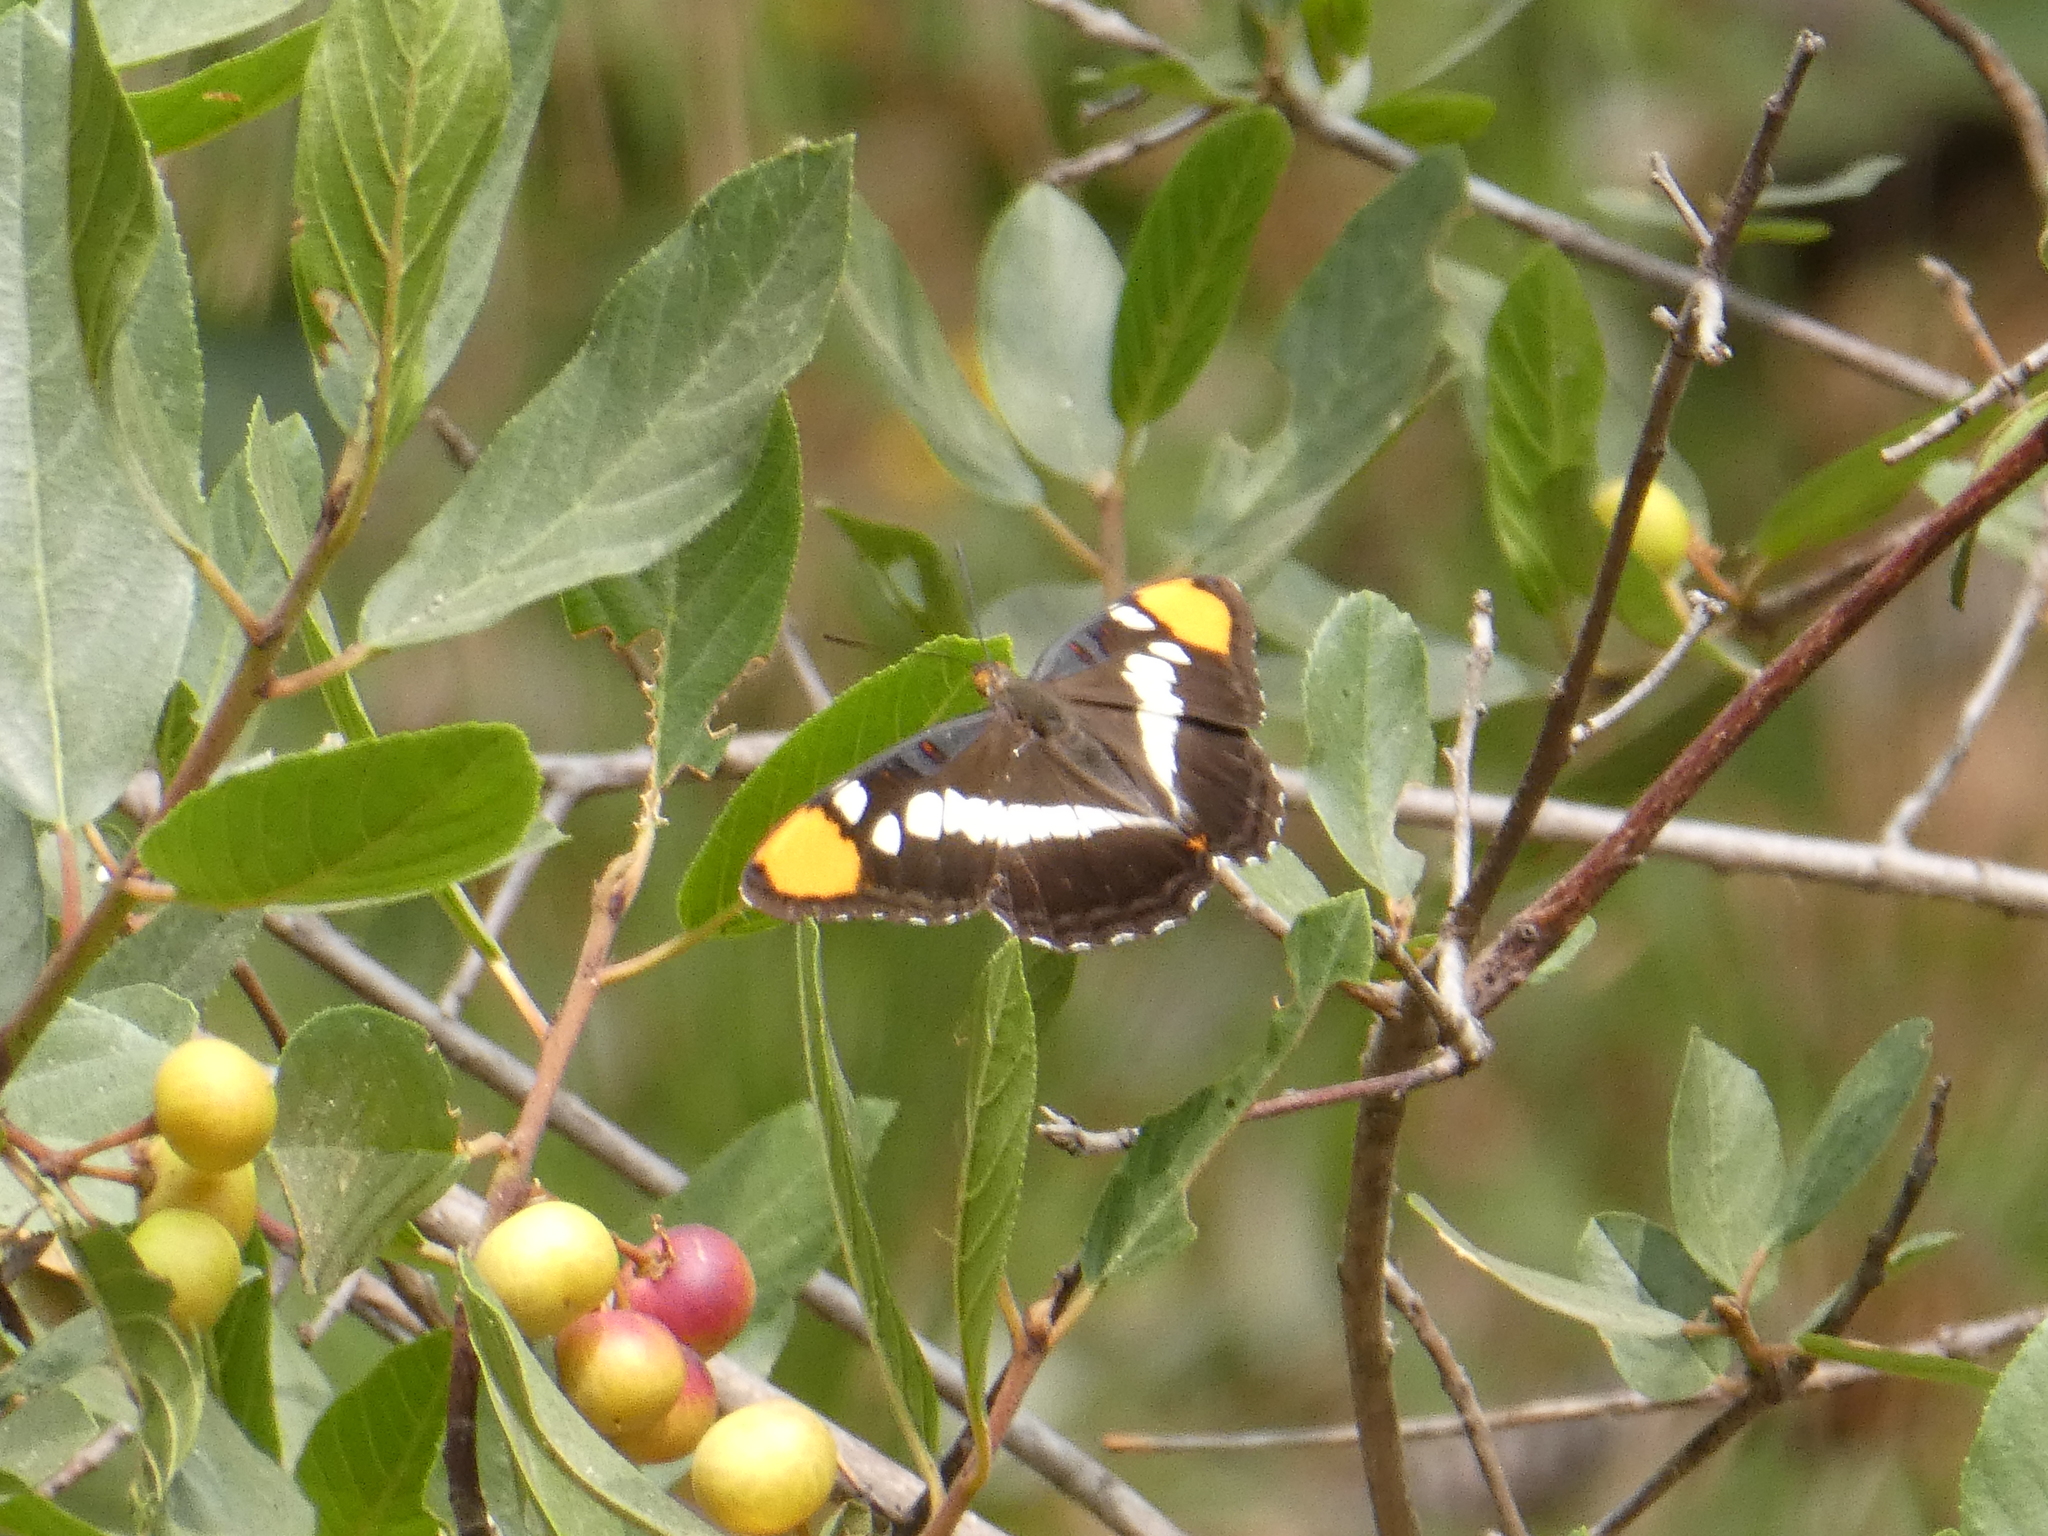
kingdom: Animalia
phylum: Arthropoda
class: Insecta
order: Lepidoptera
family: Nymphalidae
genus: Limenitis
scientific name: Limenitis bredowii
